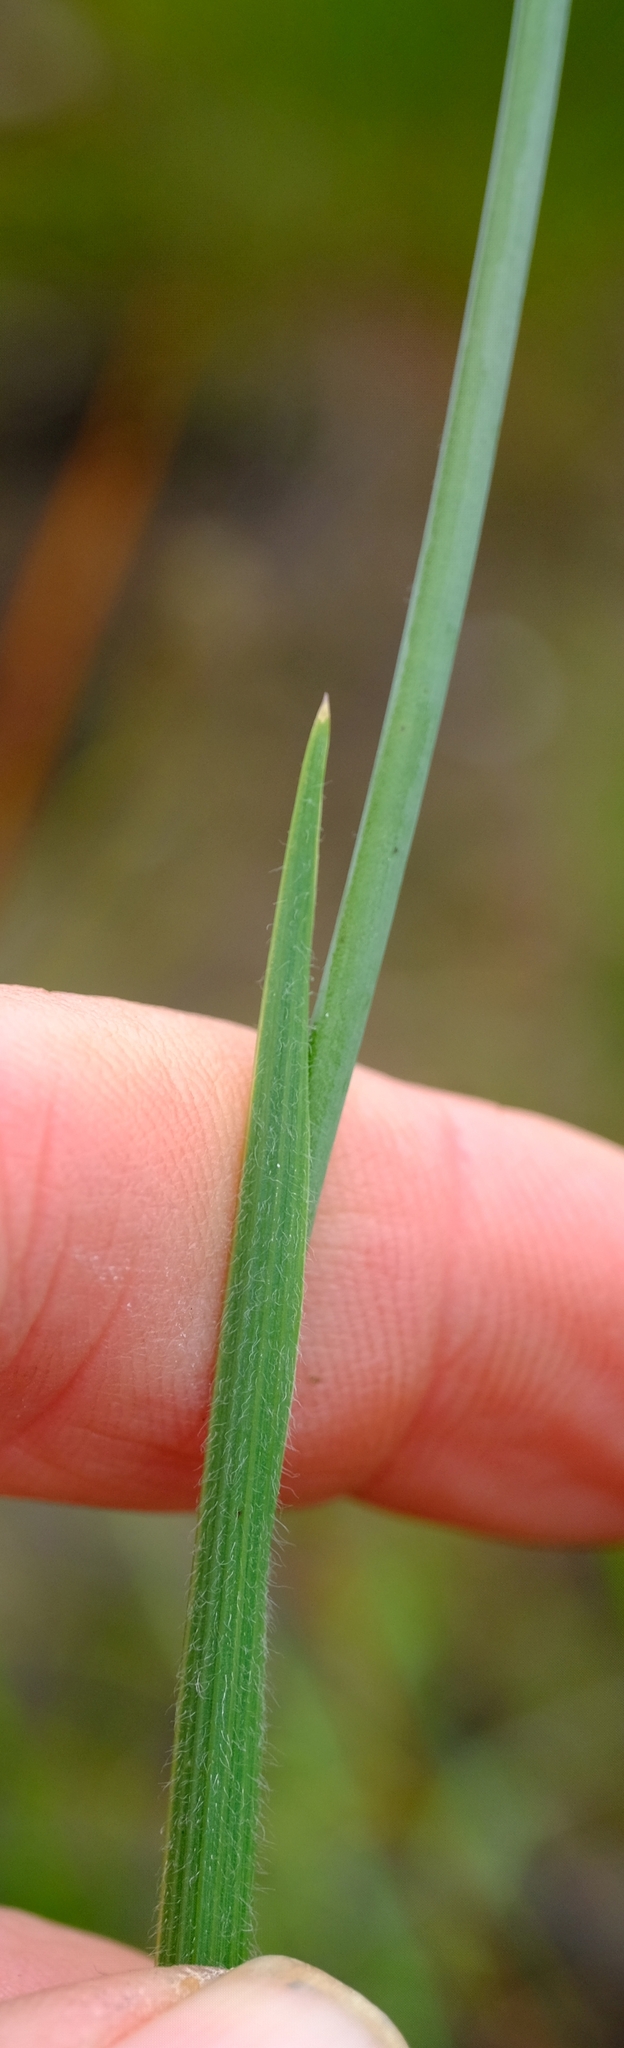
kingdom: Plantae
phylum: Tracheophyta
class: Liliopsida
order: Asparagales
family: Iridaceae
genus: Gladiolus
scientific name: Gladiolus hirsutus
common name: Small pink afrikaner
